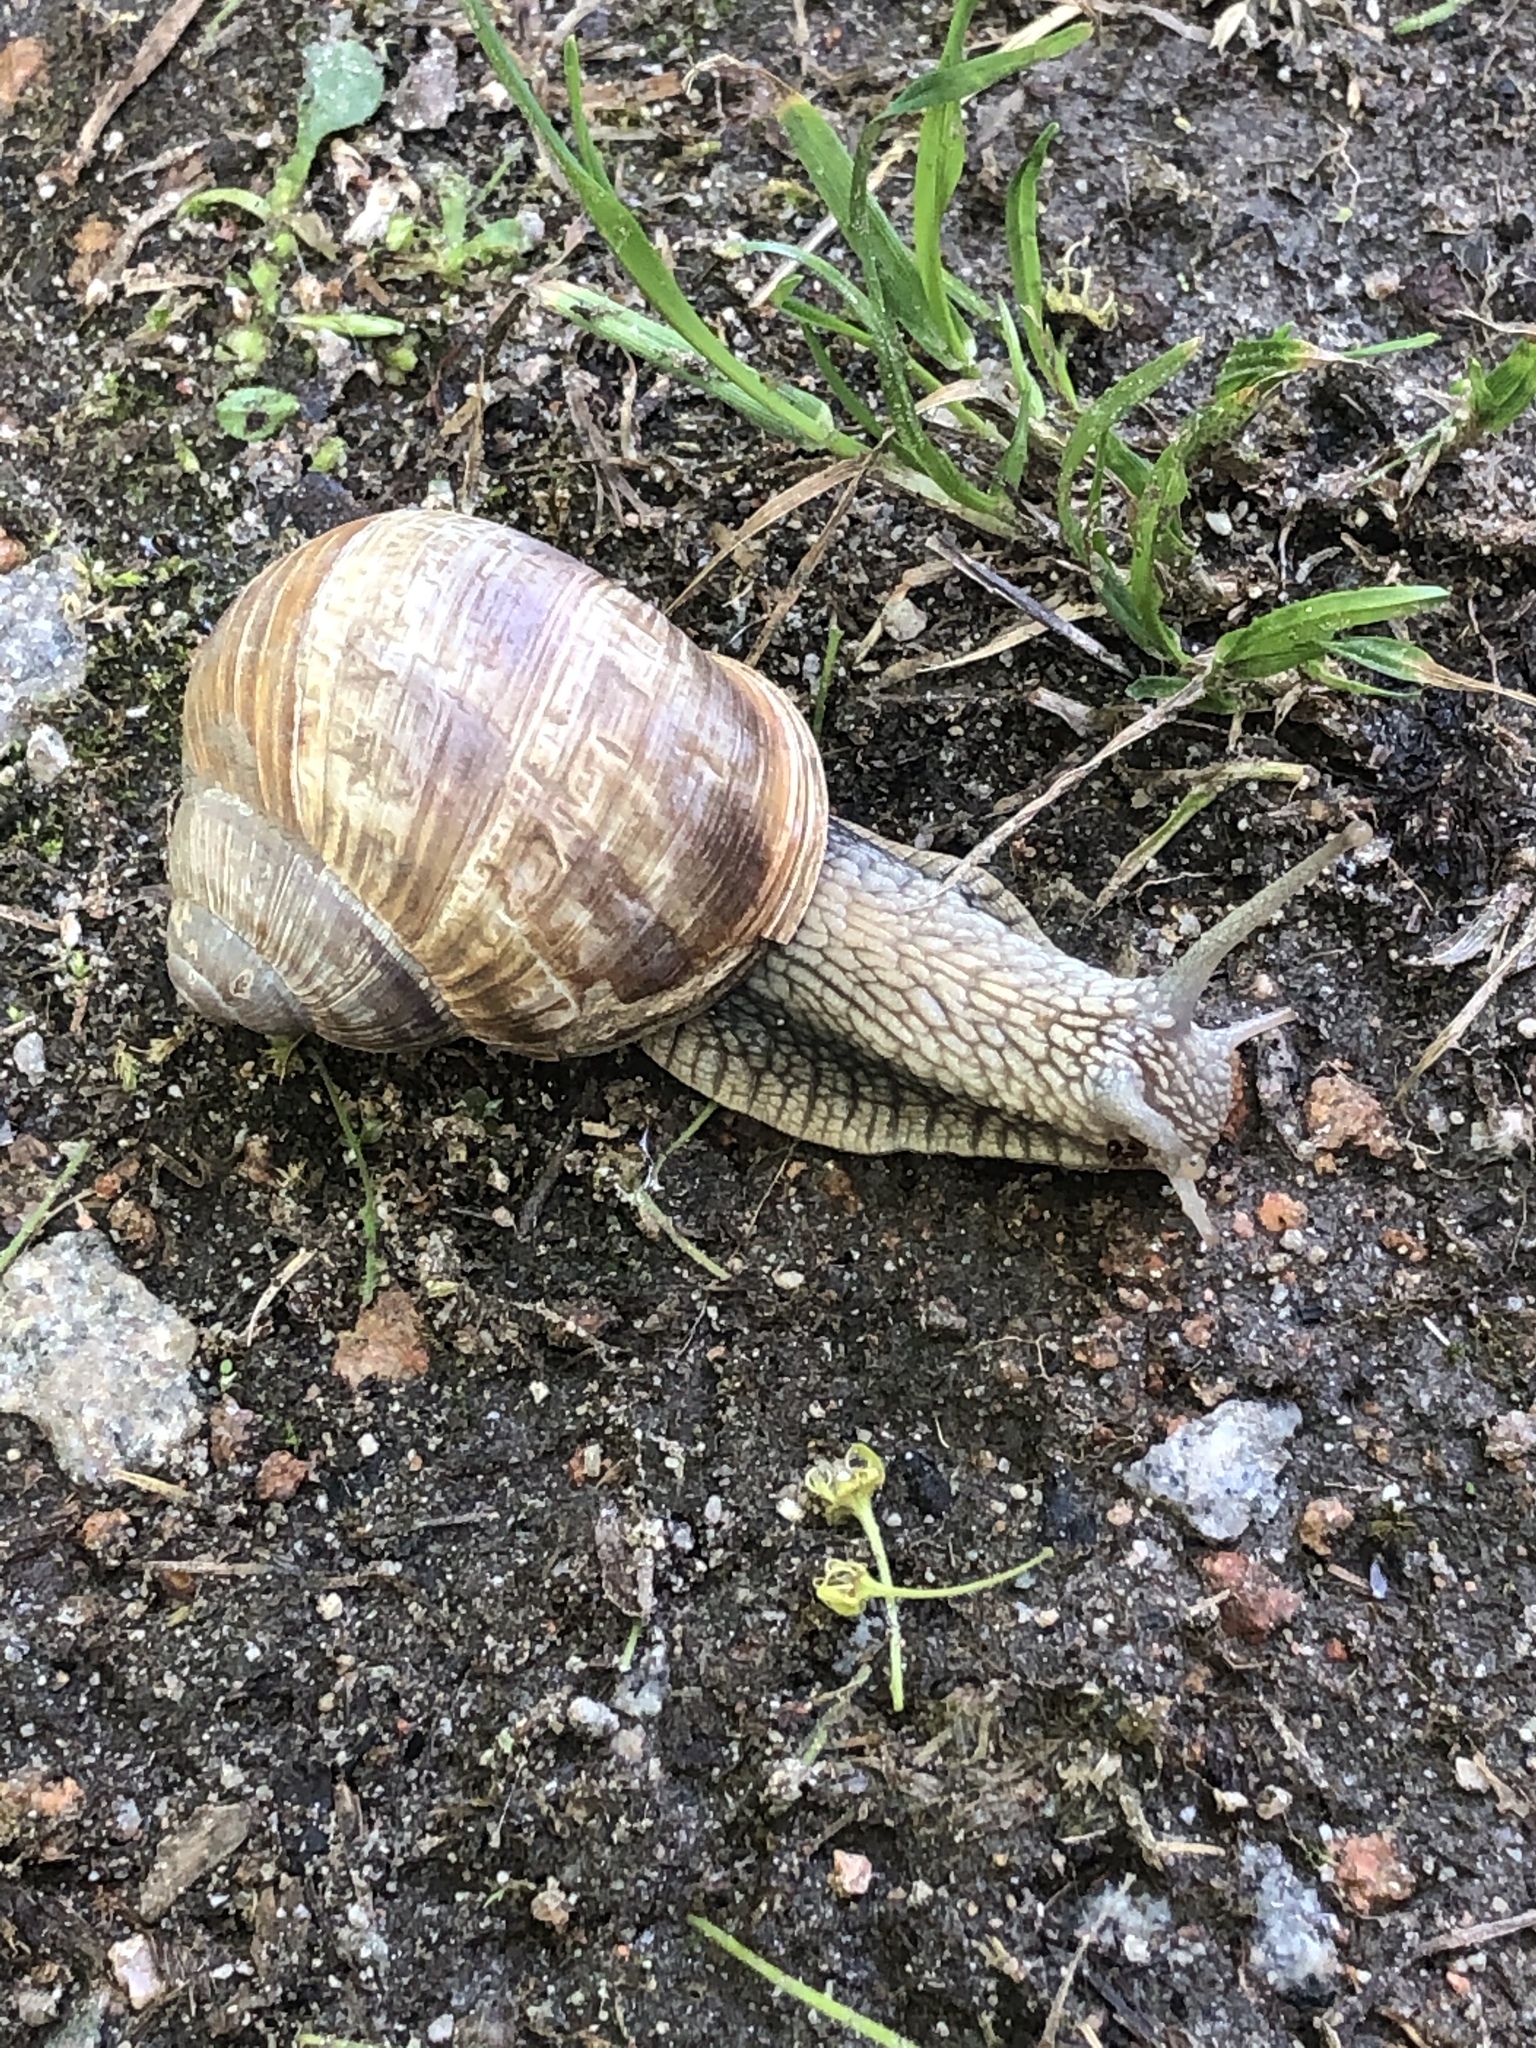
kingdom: Animalia
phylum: Mollusca
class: Gastropoda
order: Stylommatophora
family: Helicidae
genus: Helix
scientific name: Helix pomatia
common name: Roman snail
